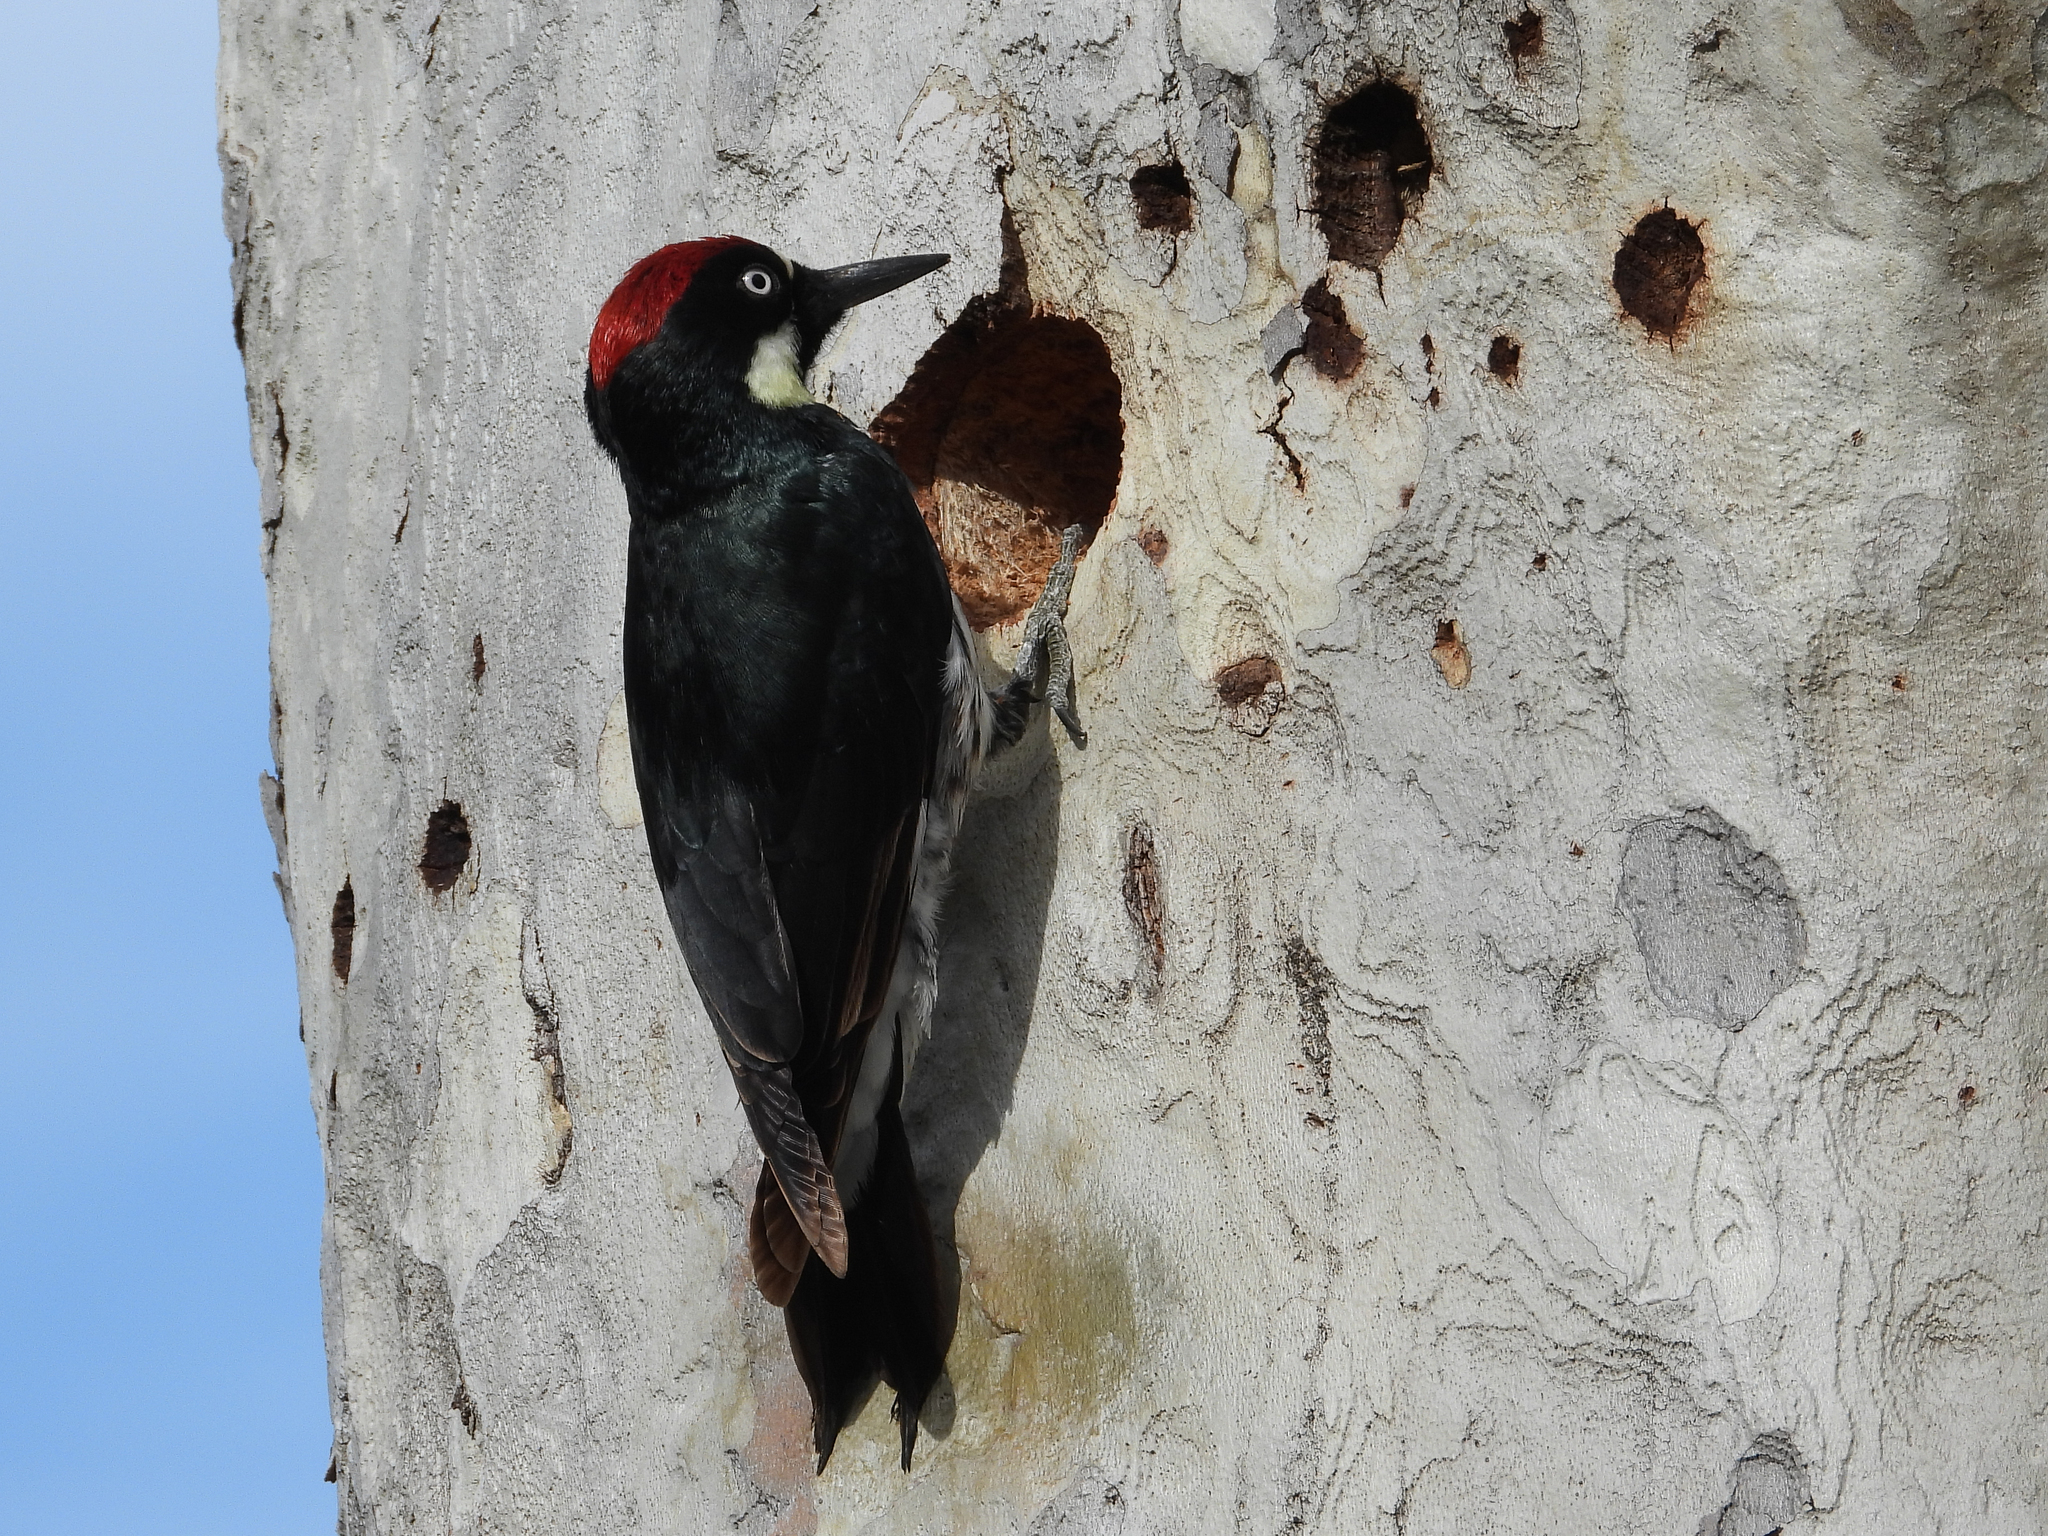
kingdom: Animalia
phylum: Chordata
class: Aves
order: Piciformes
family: Picidae
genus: Melanerpes
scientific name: Melanerpes formicivorus
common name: Acorn woodpecker
